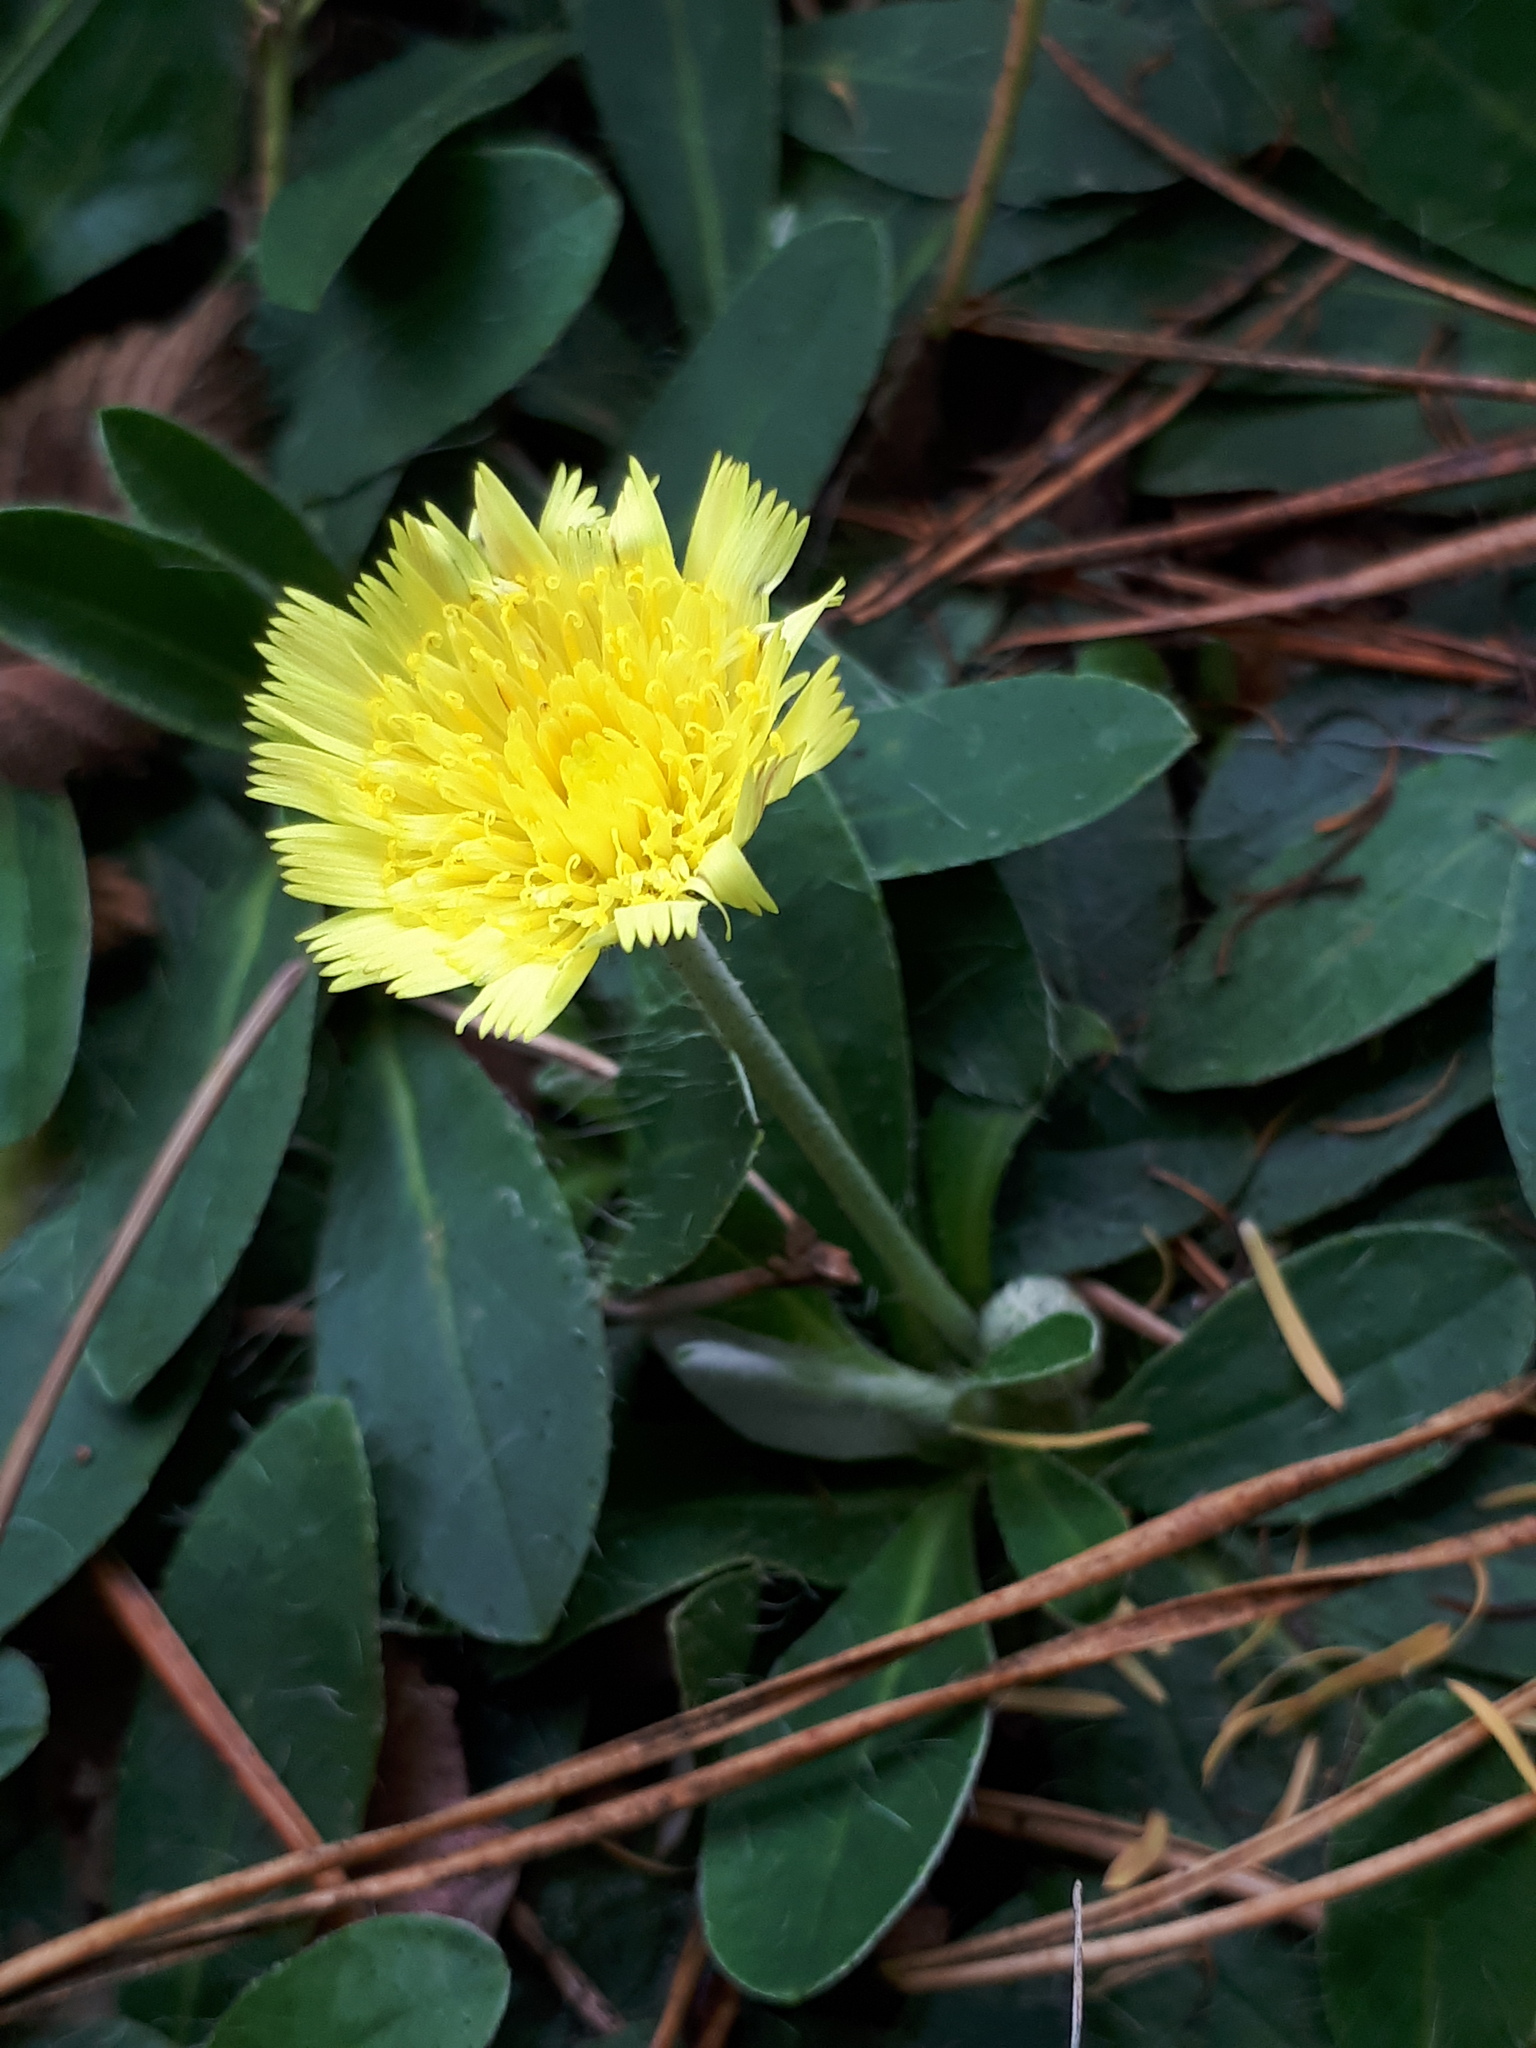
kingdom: Plantae
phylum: Tracheophyta
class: Magnoliopsida
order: Asterales
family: Asteraceae
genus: Pilosella
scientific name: Pilosella officinarum
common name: Mouse-ear hawkweed
